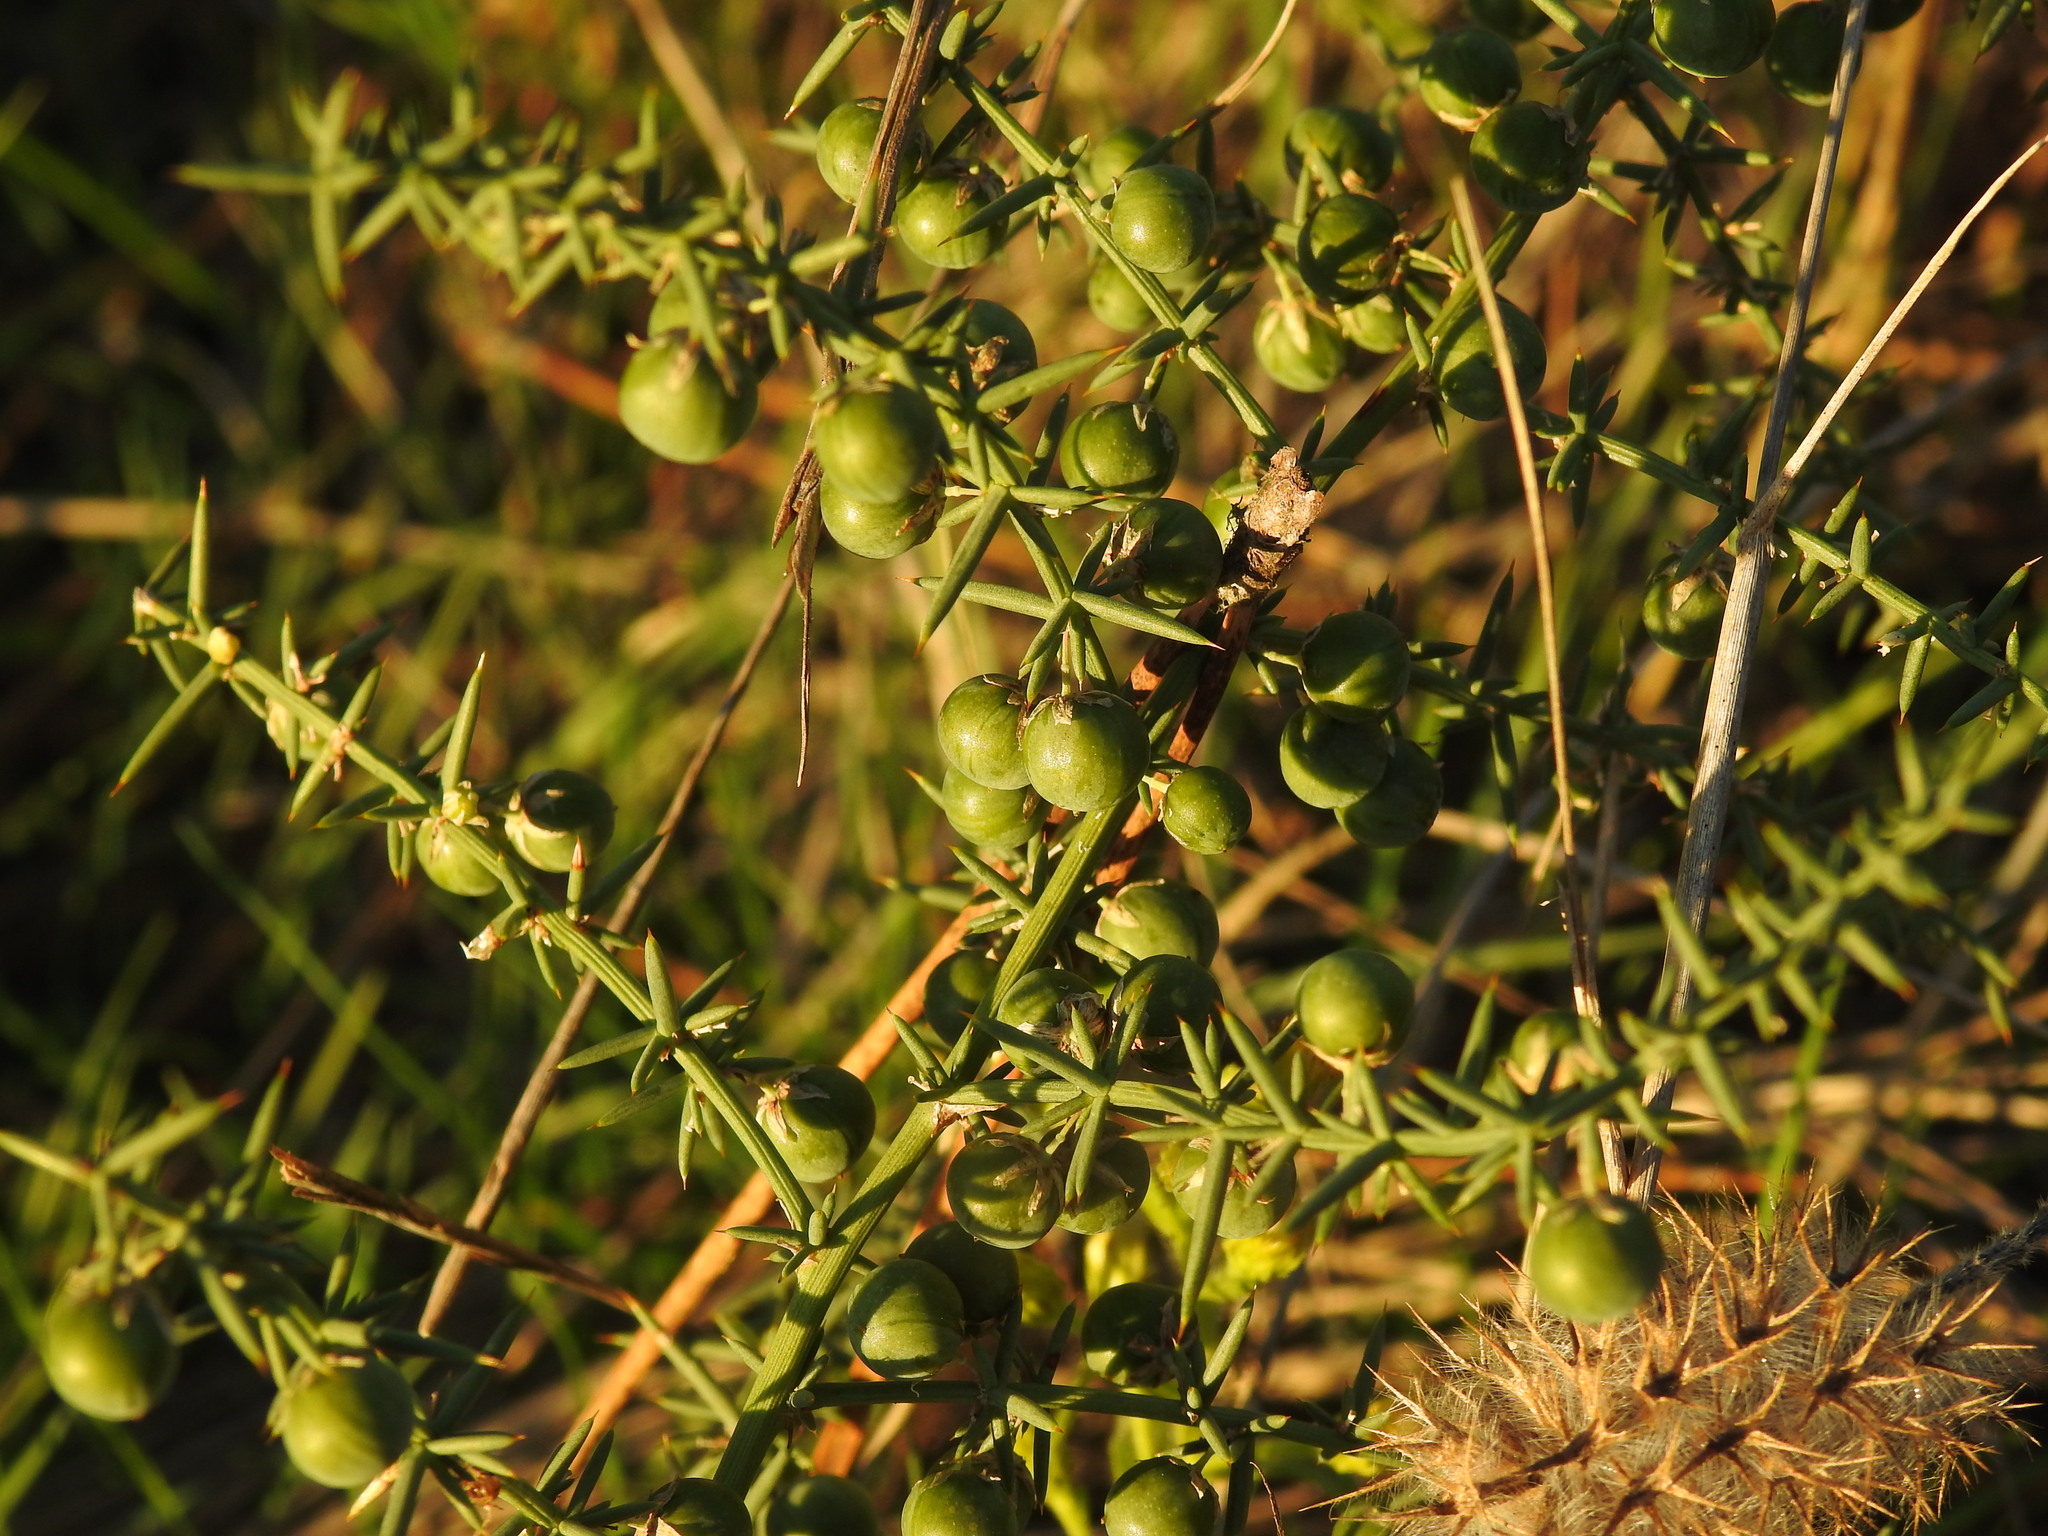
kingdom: Plantae
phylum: Tracheophyta
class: Liliopsida
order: Asparagales
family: Asparagaceae
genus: Asparagus
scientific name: Asparagus aphyllus
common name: Mediterranean asparagus
